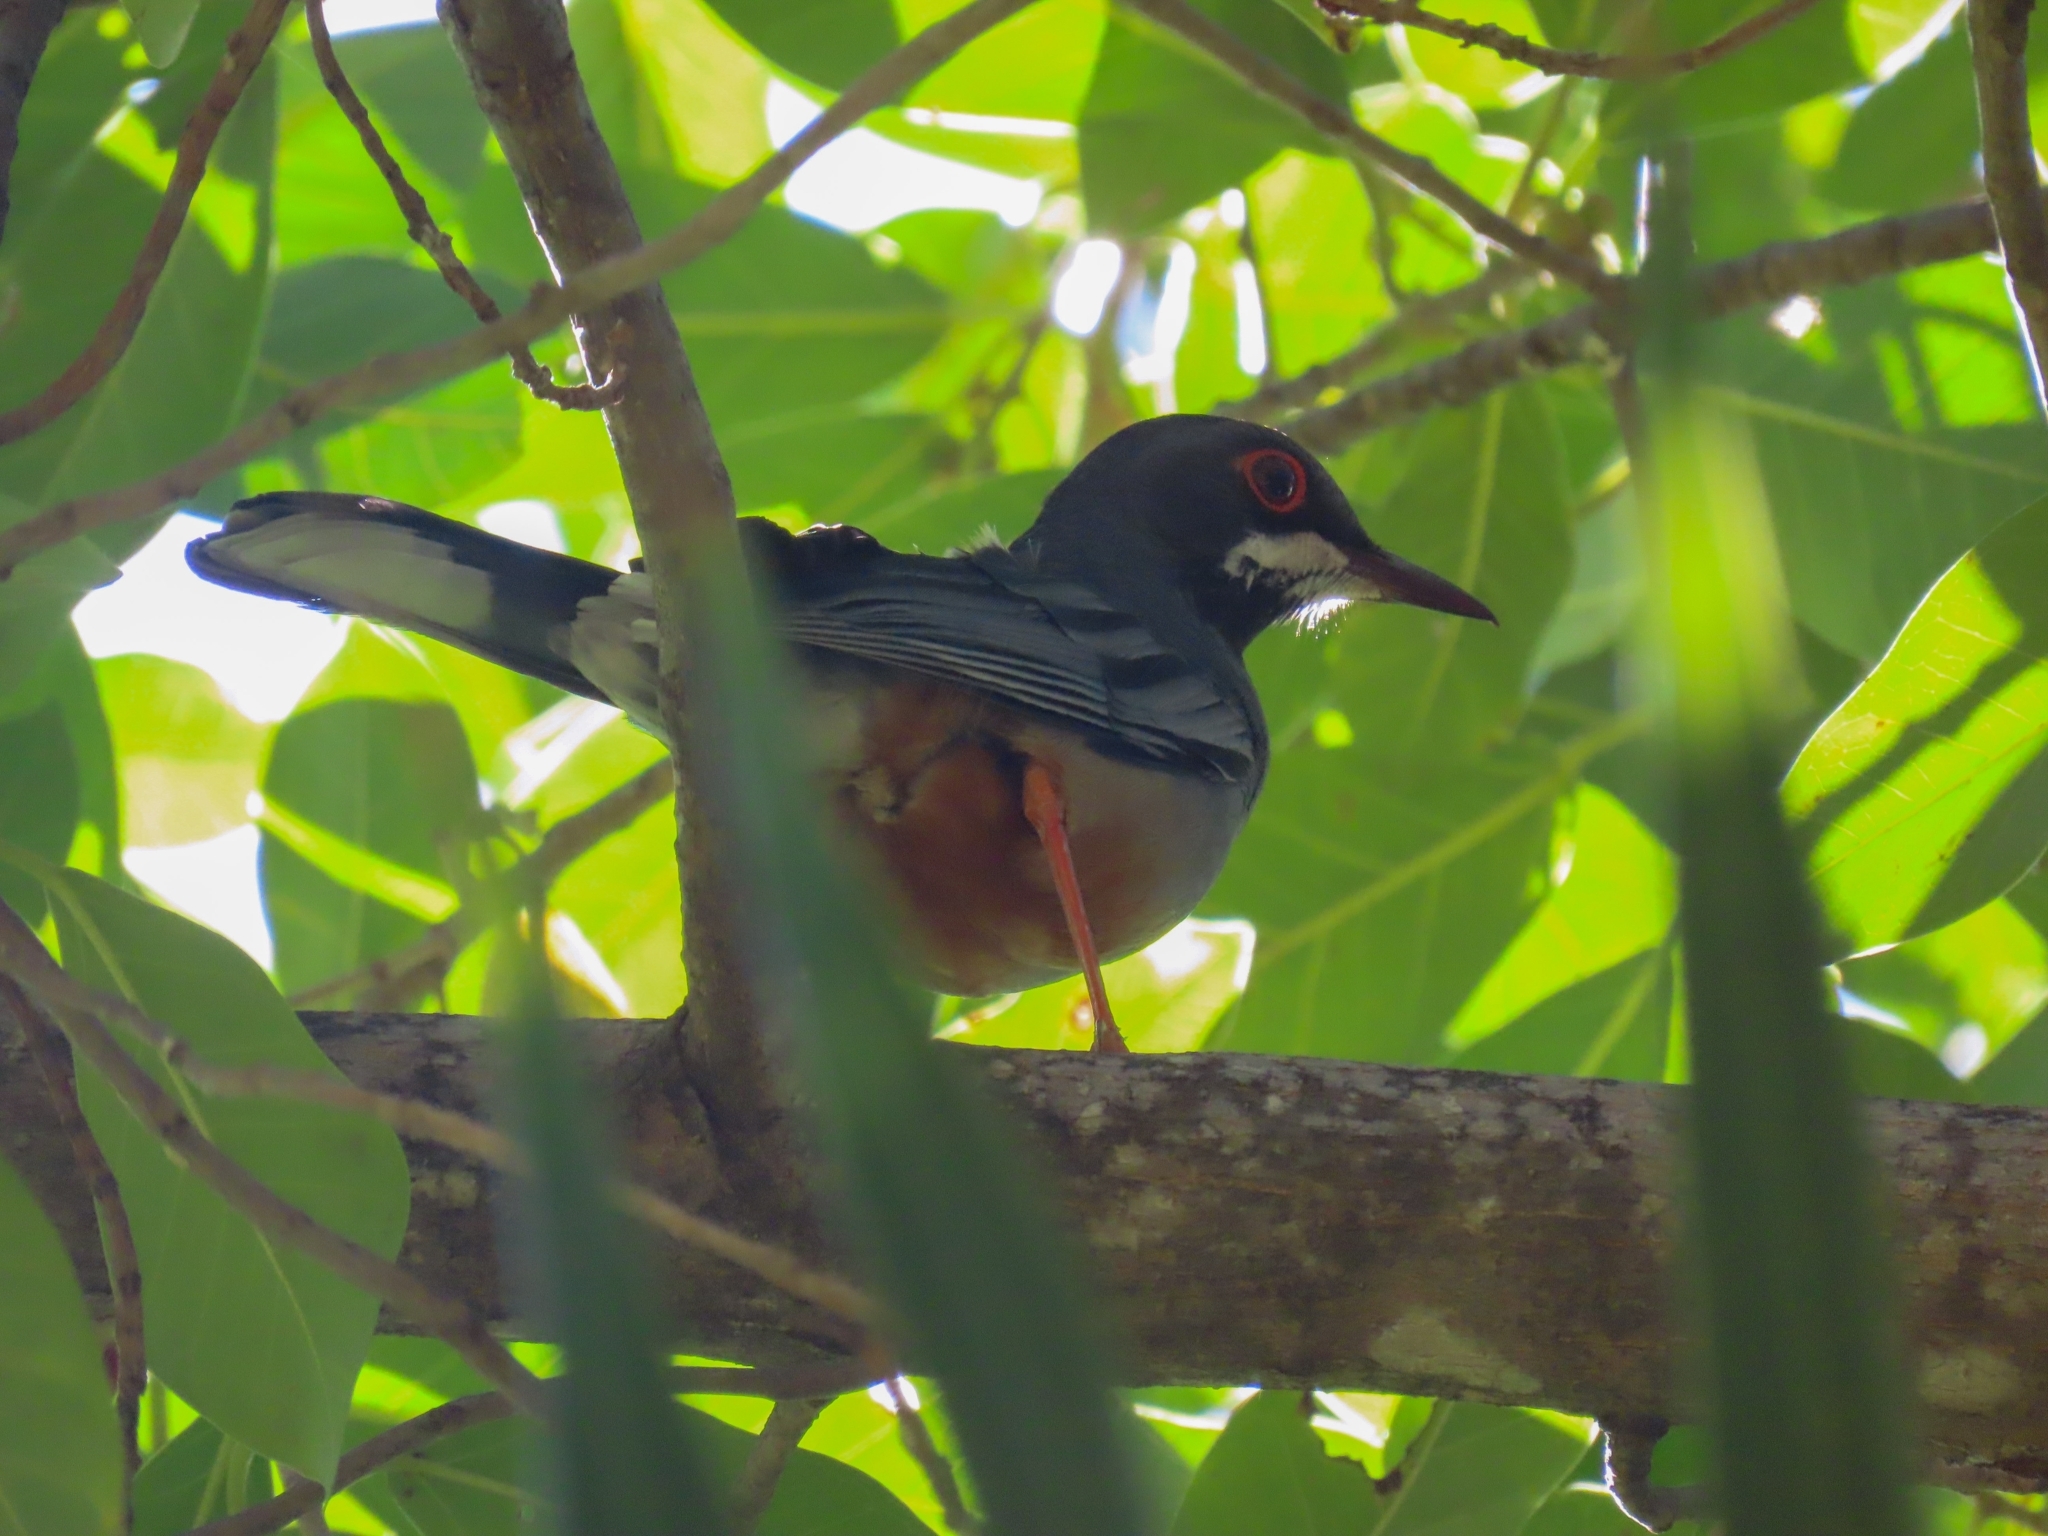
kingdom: Animalia
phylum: Chordata
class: Aves
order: Passeriformes
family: Turdidae
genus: Turdus
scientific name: Turdus plumbeus
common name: Red-legged thrush
